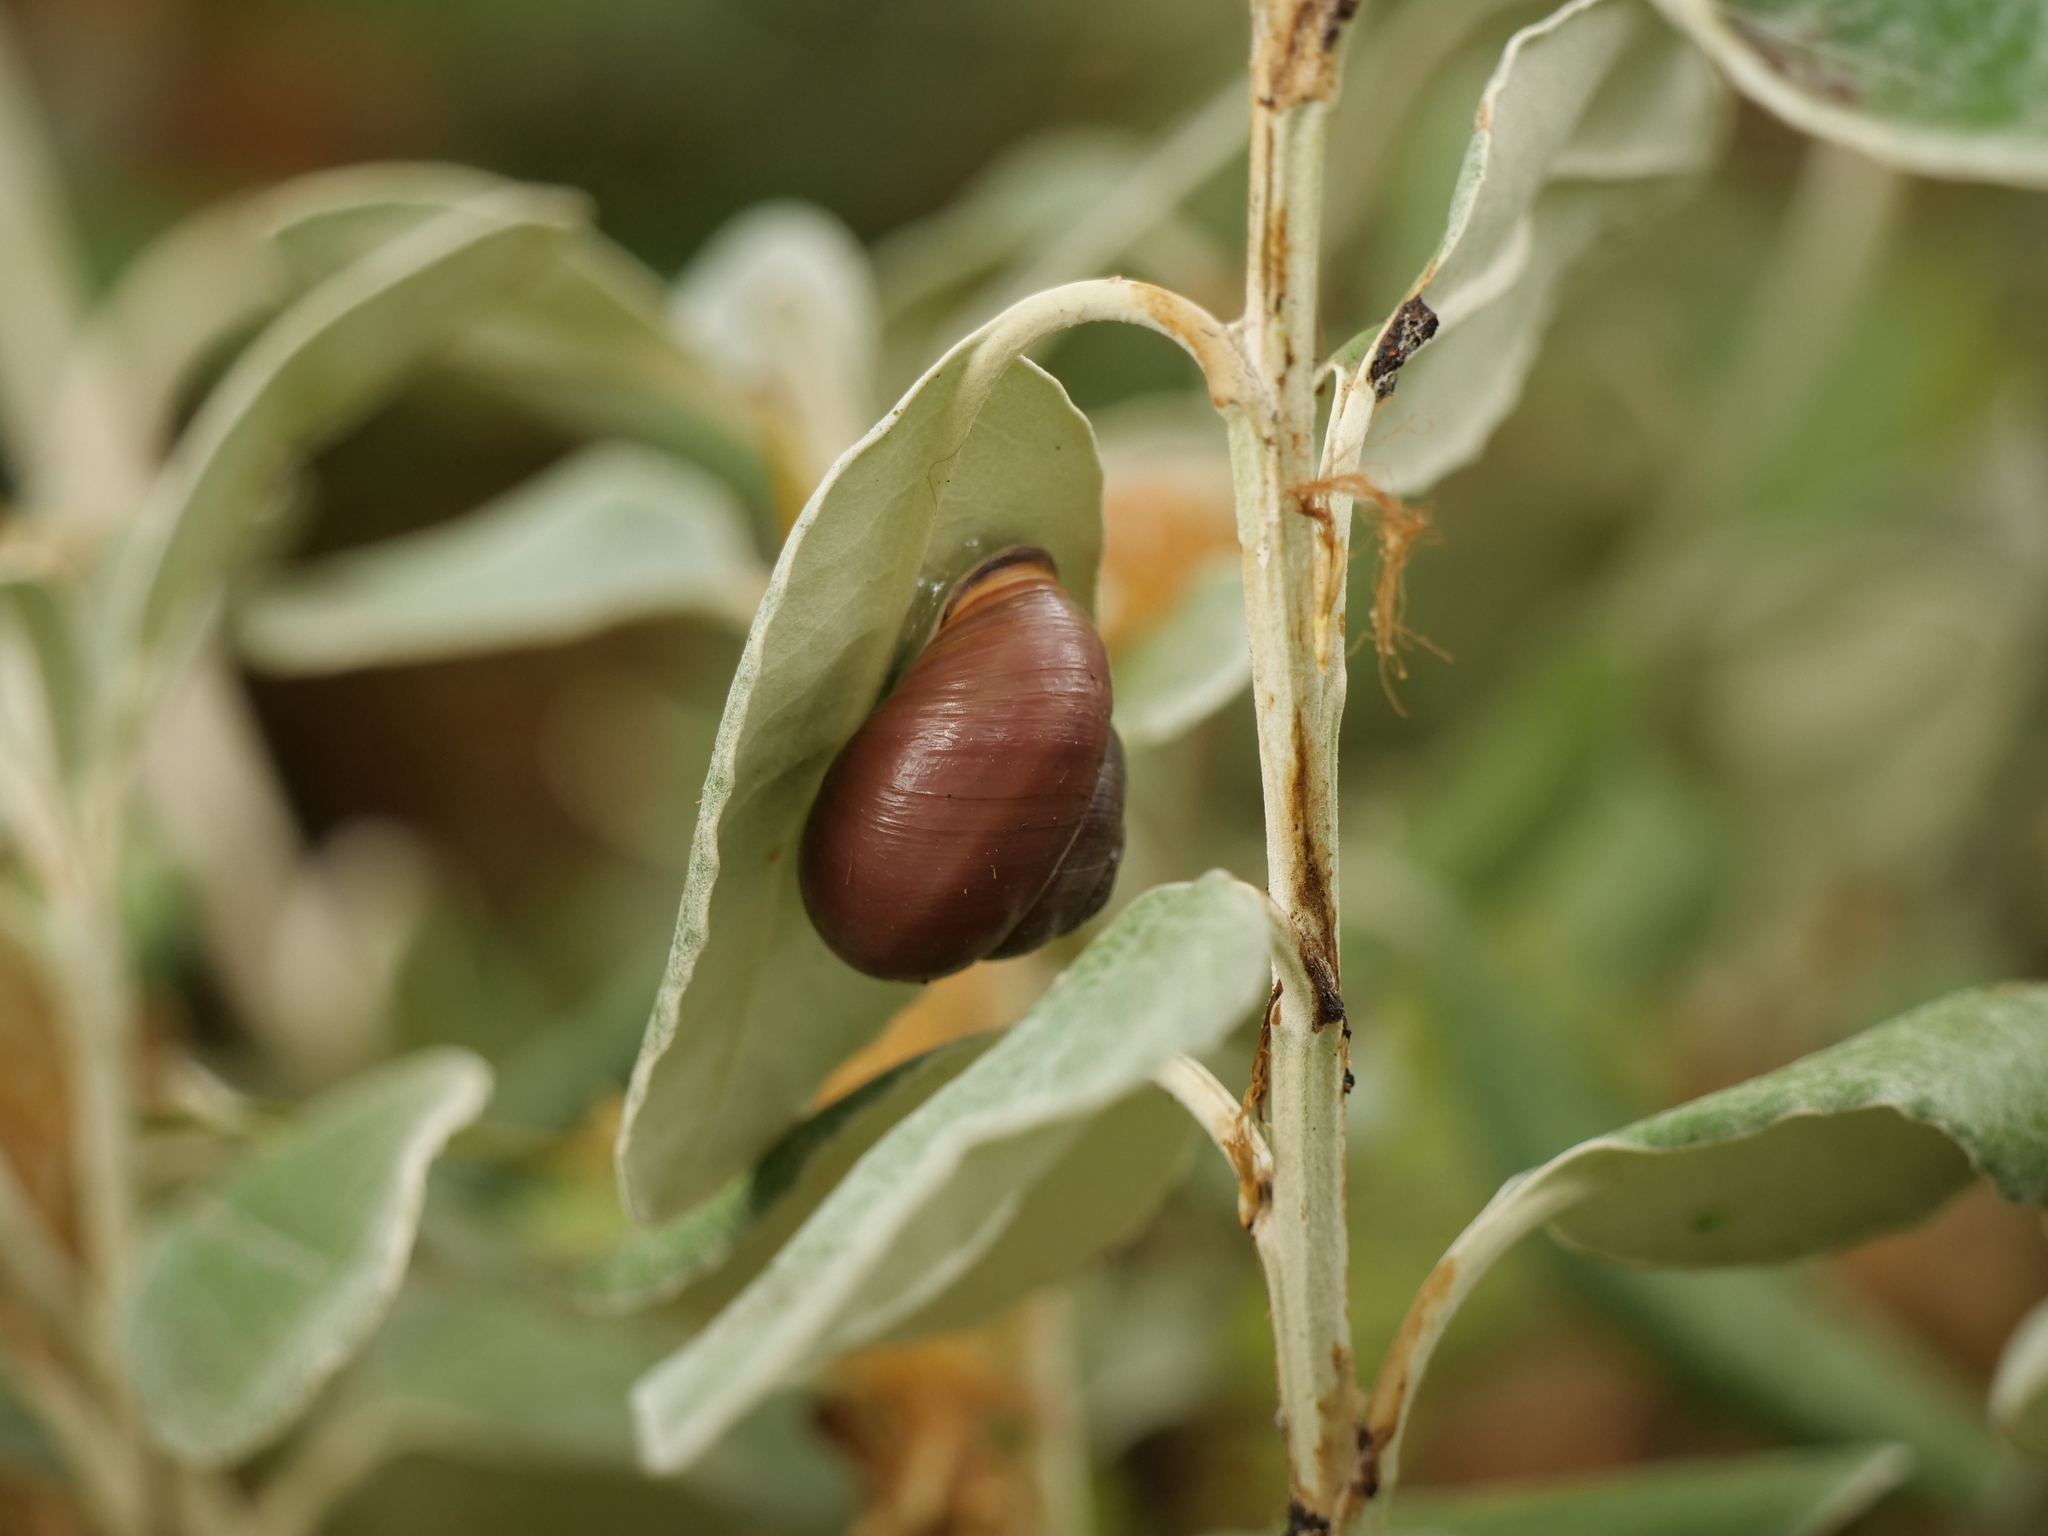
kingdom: Animalia
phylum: Mollusca
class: Gastropoda
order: Stylommatophora
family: Helicidae
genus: Cepaea
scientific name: Cepaea nemoralis
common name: Grovesnail
